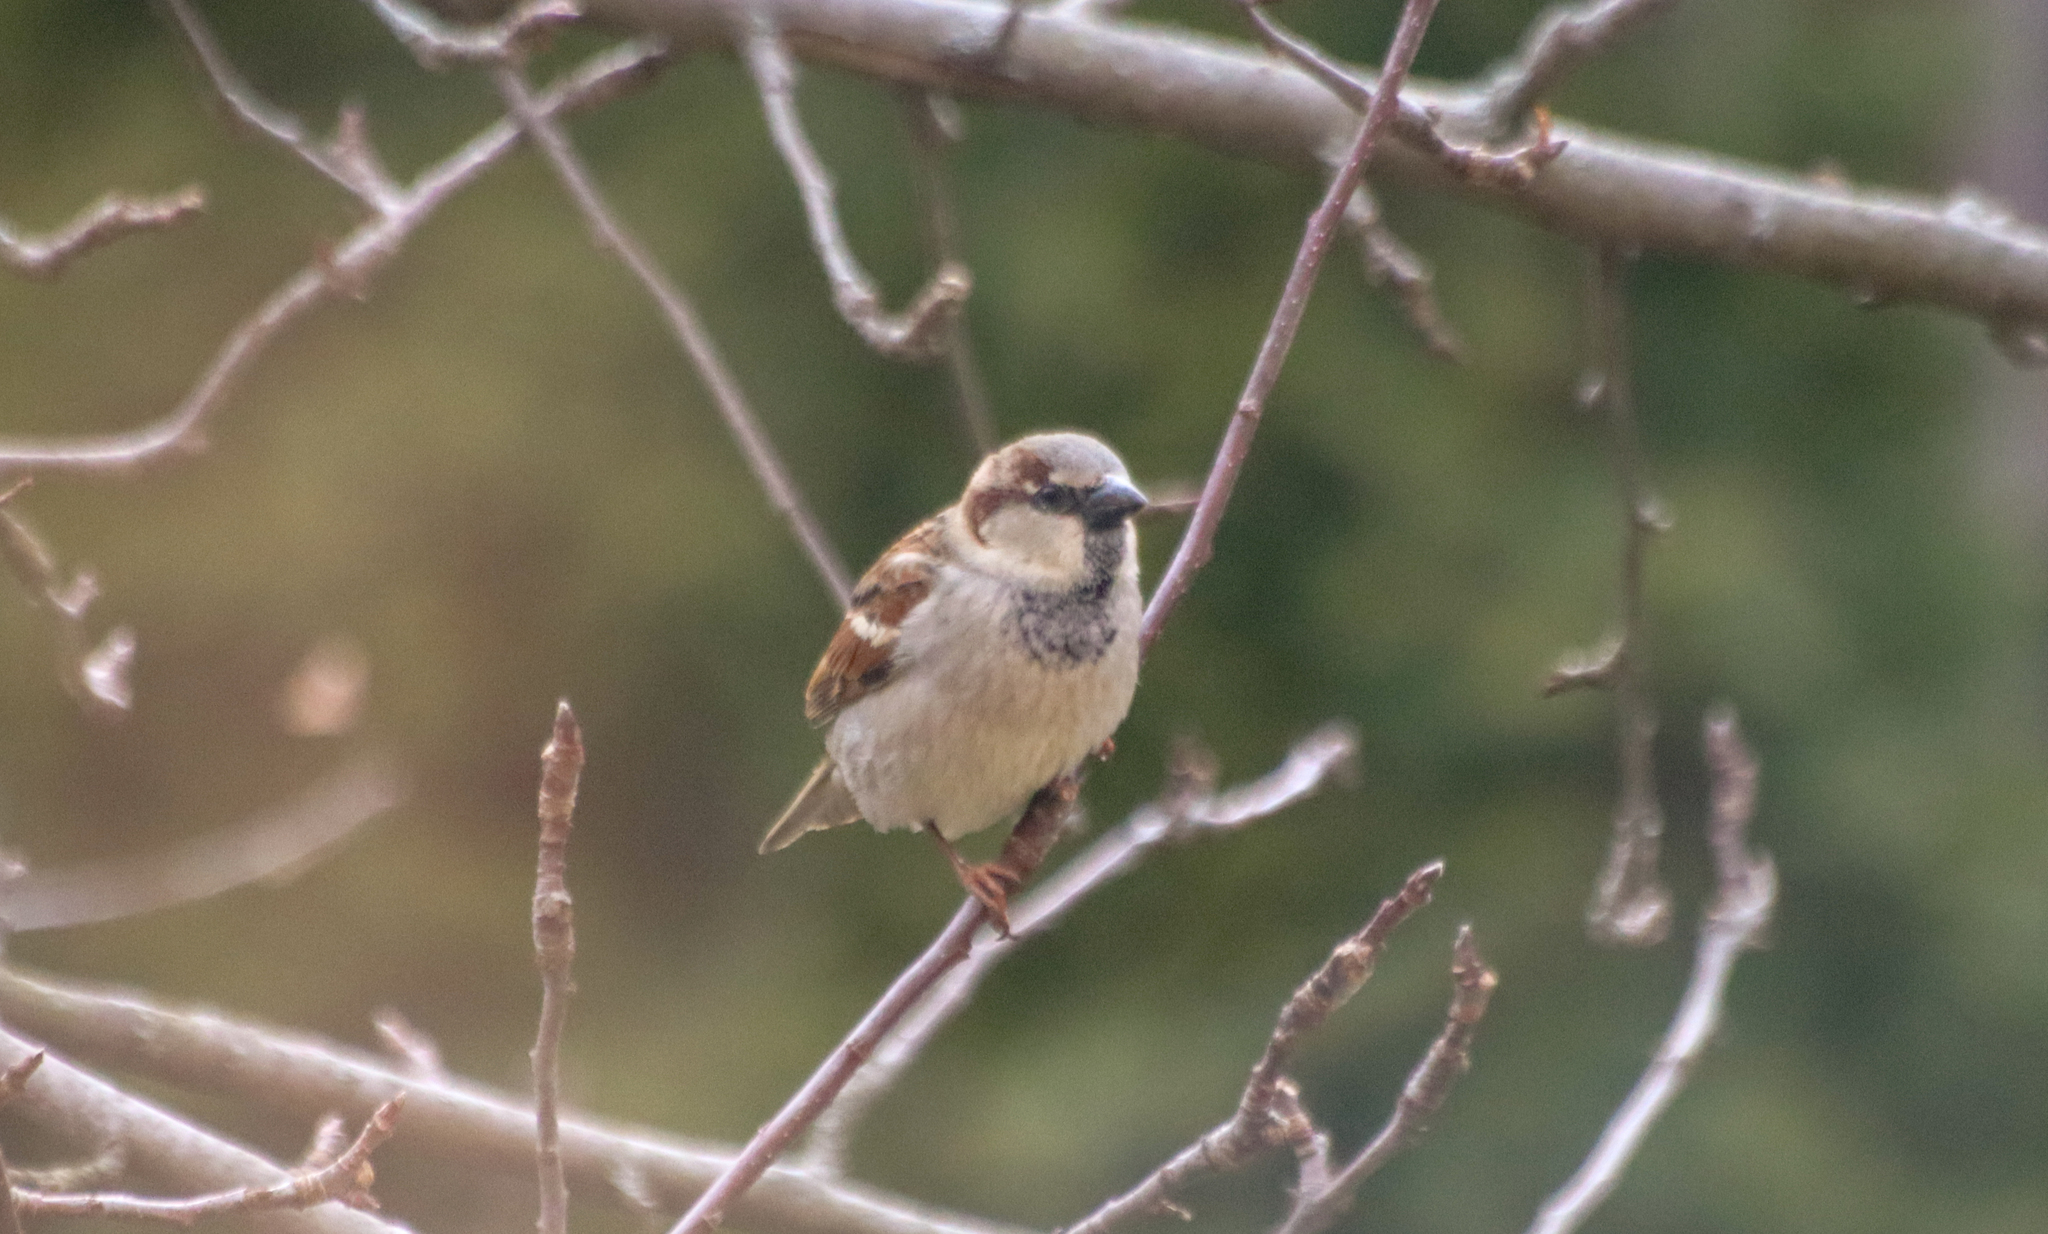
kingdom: Animalia
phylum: Chordata
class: Aves
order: Passeriformes
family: Passeridae
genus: Passer
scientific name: Passer domesticus
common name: House sparrow
